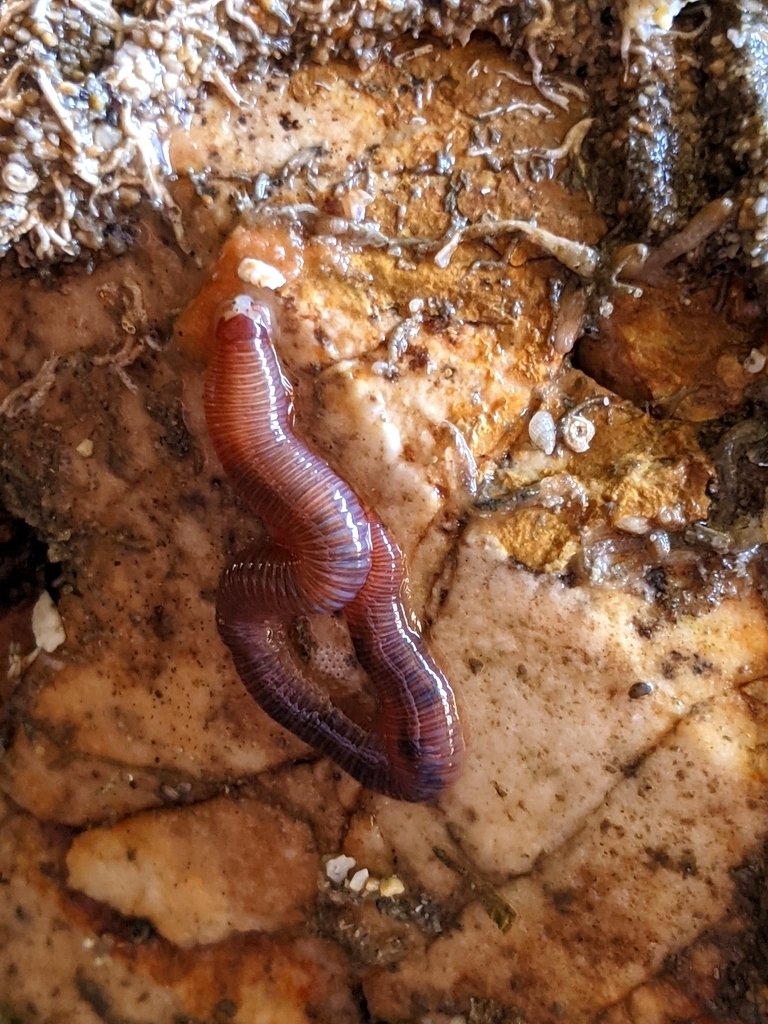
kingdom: Animalia
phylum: Annelida
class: Polychaeta
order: Eunicida
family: Dorvilleidae
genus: Dorvillea
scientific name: Dorvillea moniloceras
